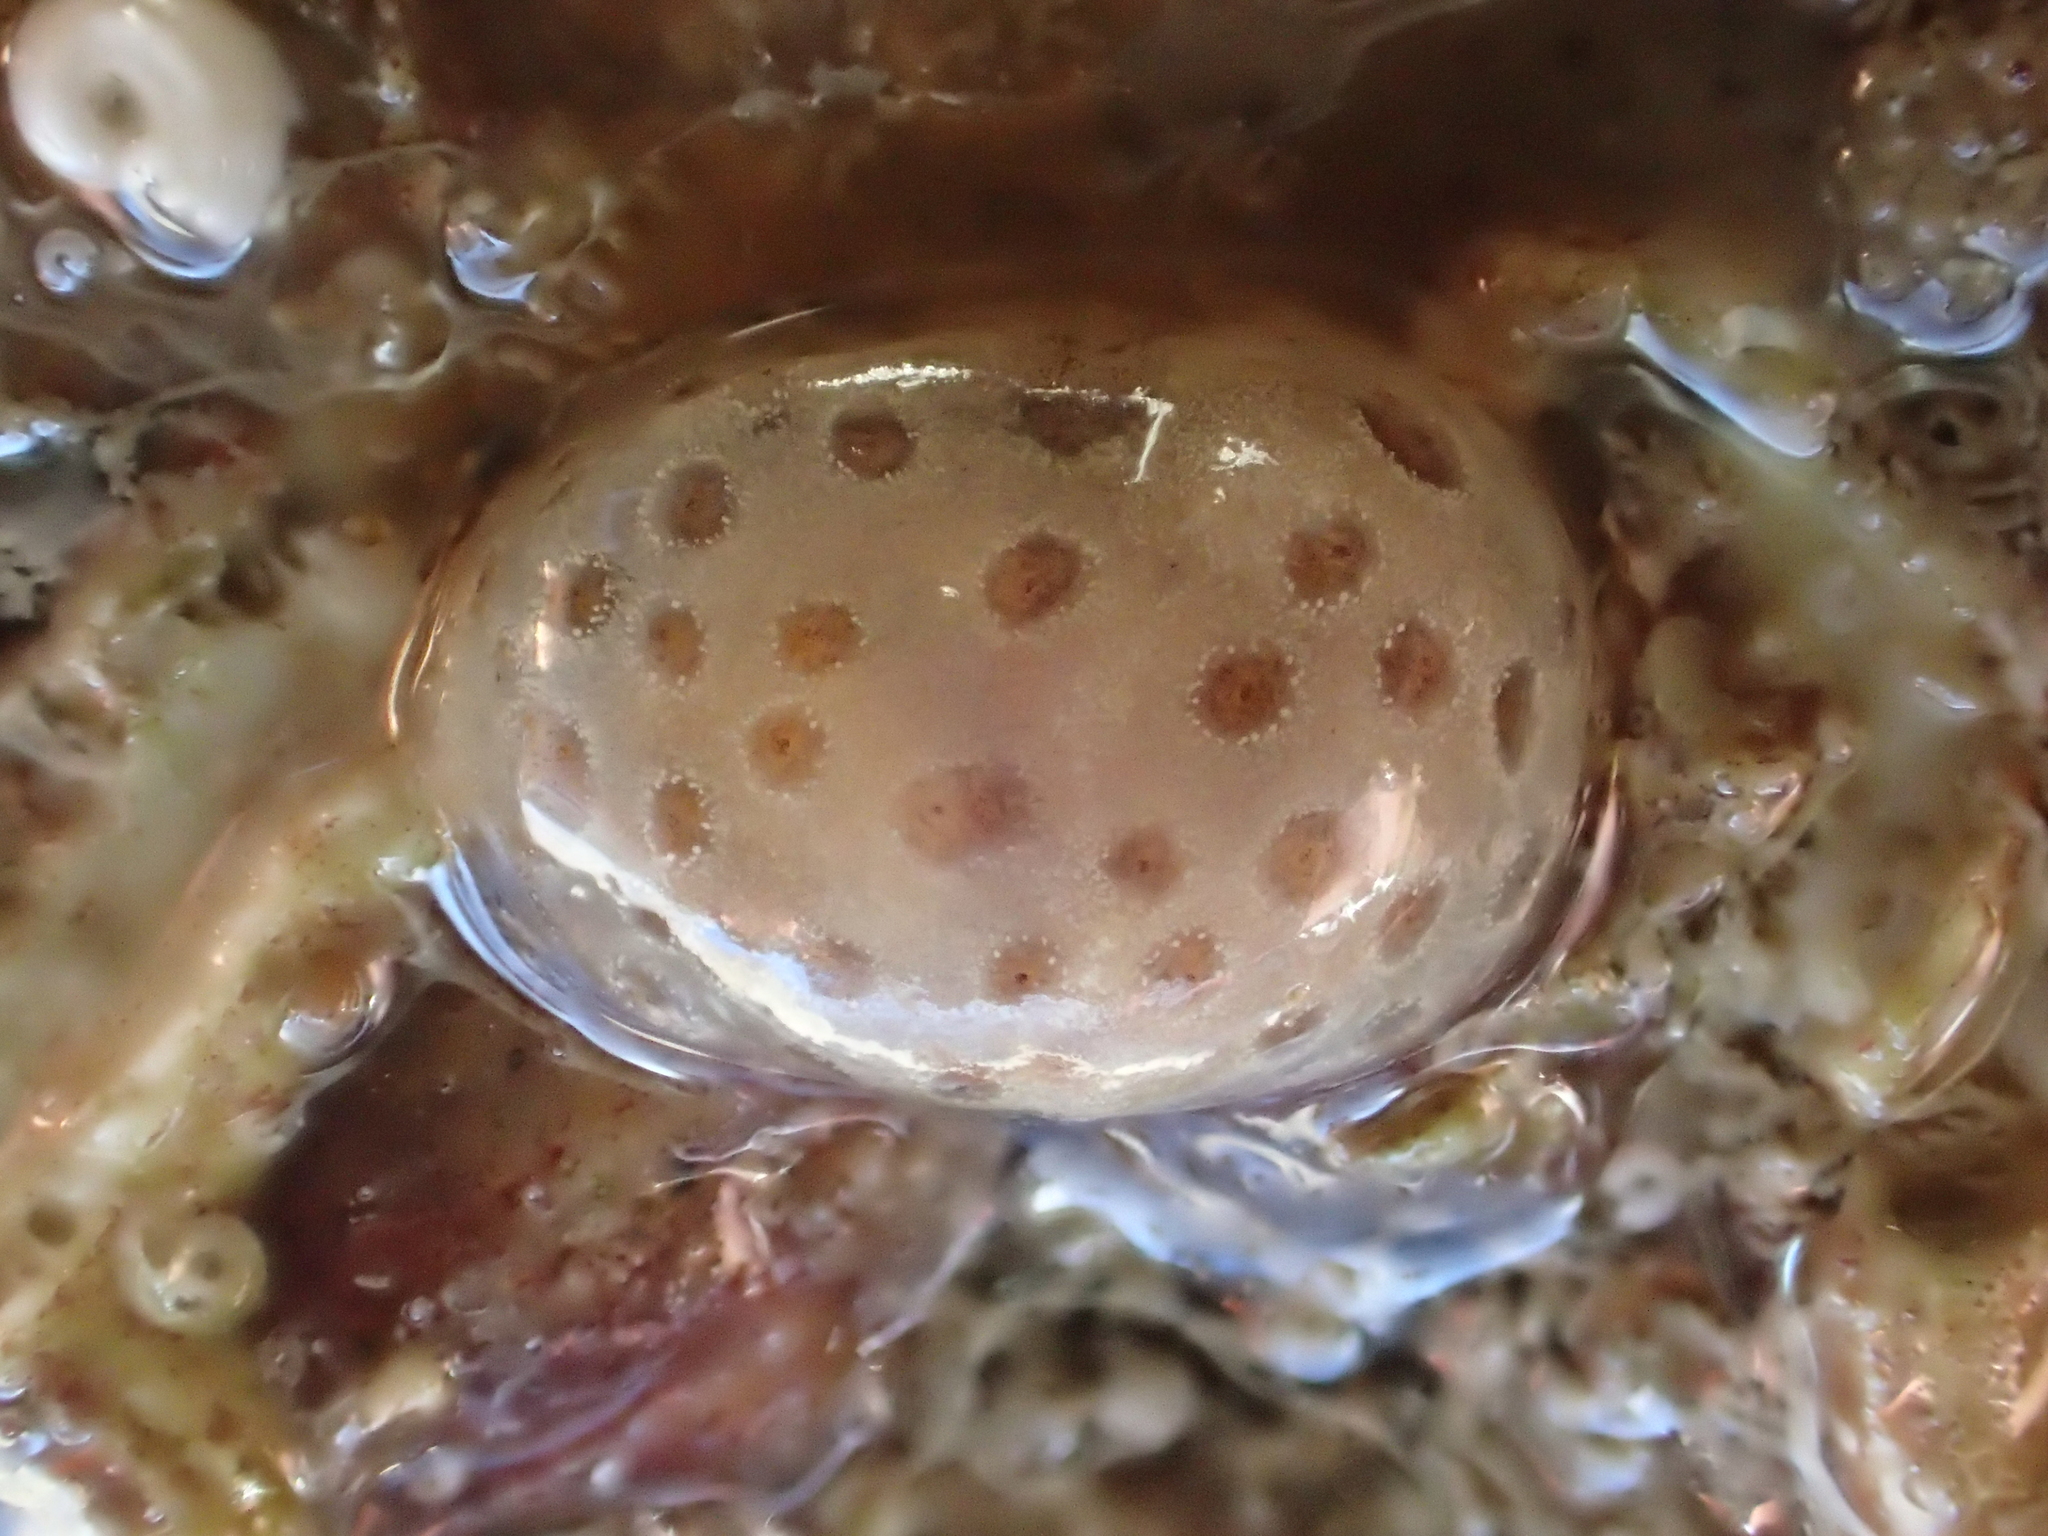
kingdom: Animalia
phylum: Mollusca
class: Gastropoda
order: Littorinimorpha
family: Velutinidae
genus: Lamellaria
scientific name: Lamellaria latens
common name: Concealed lamellaria
